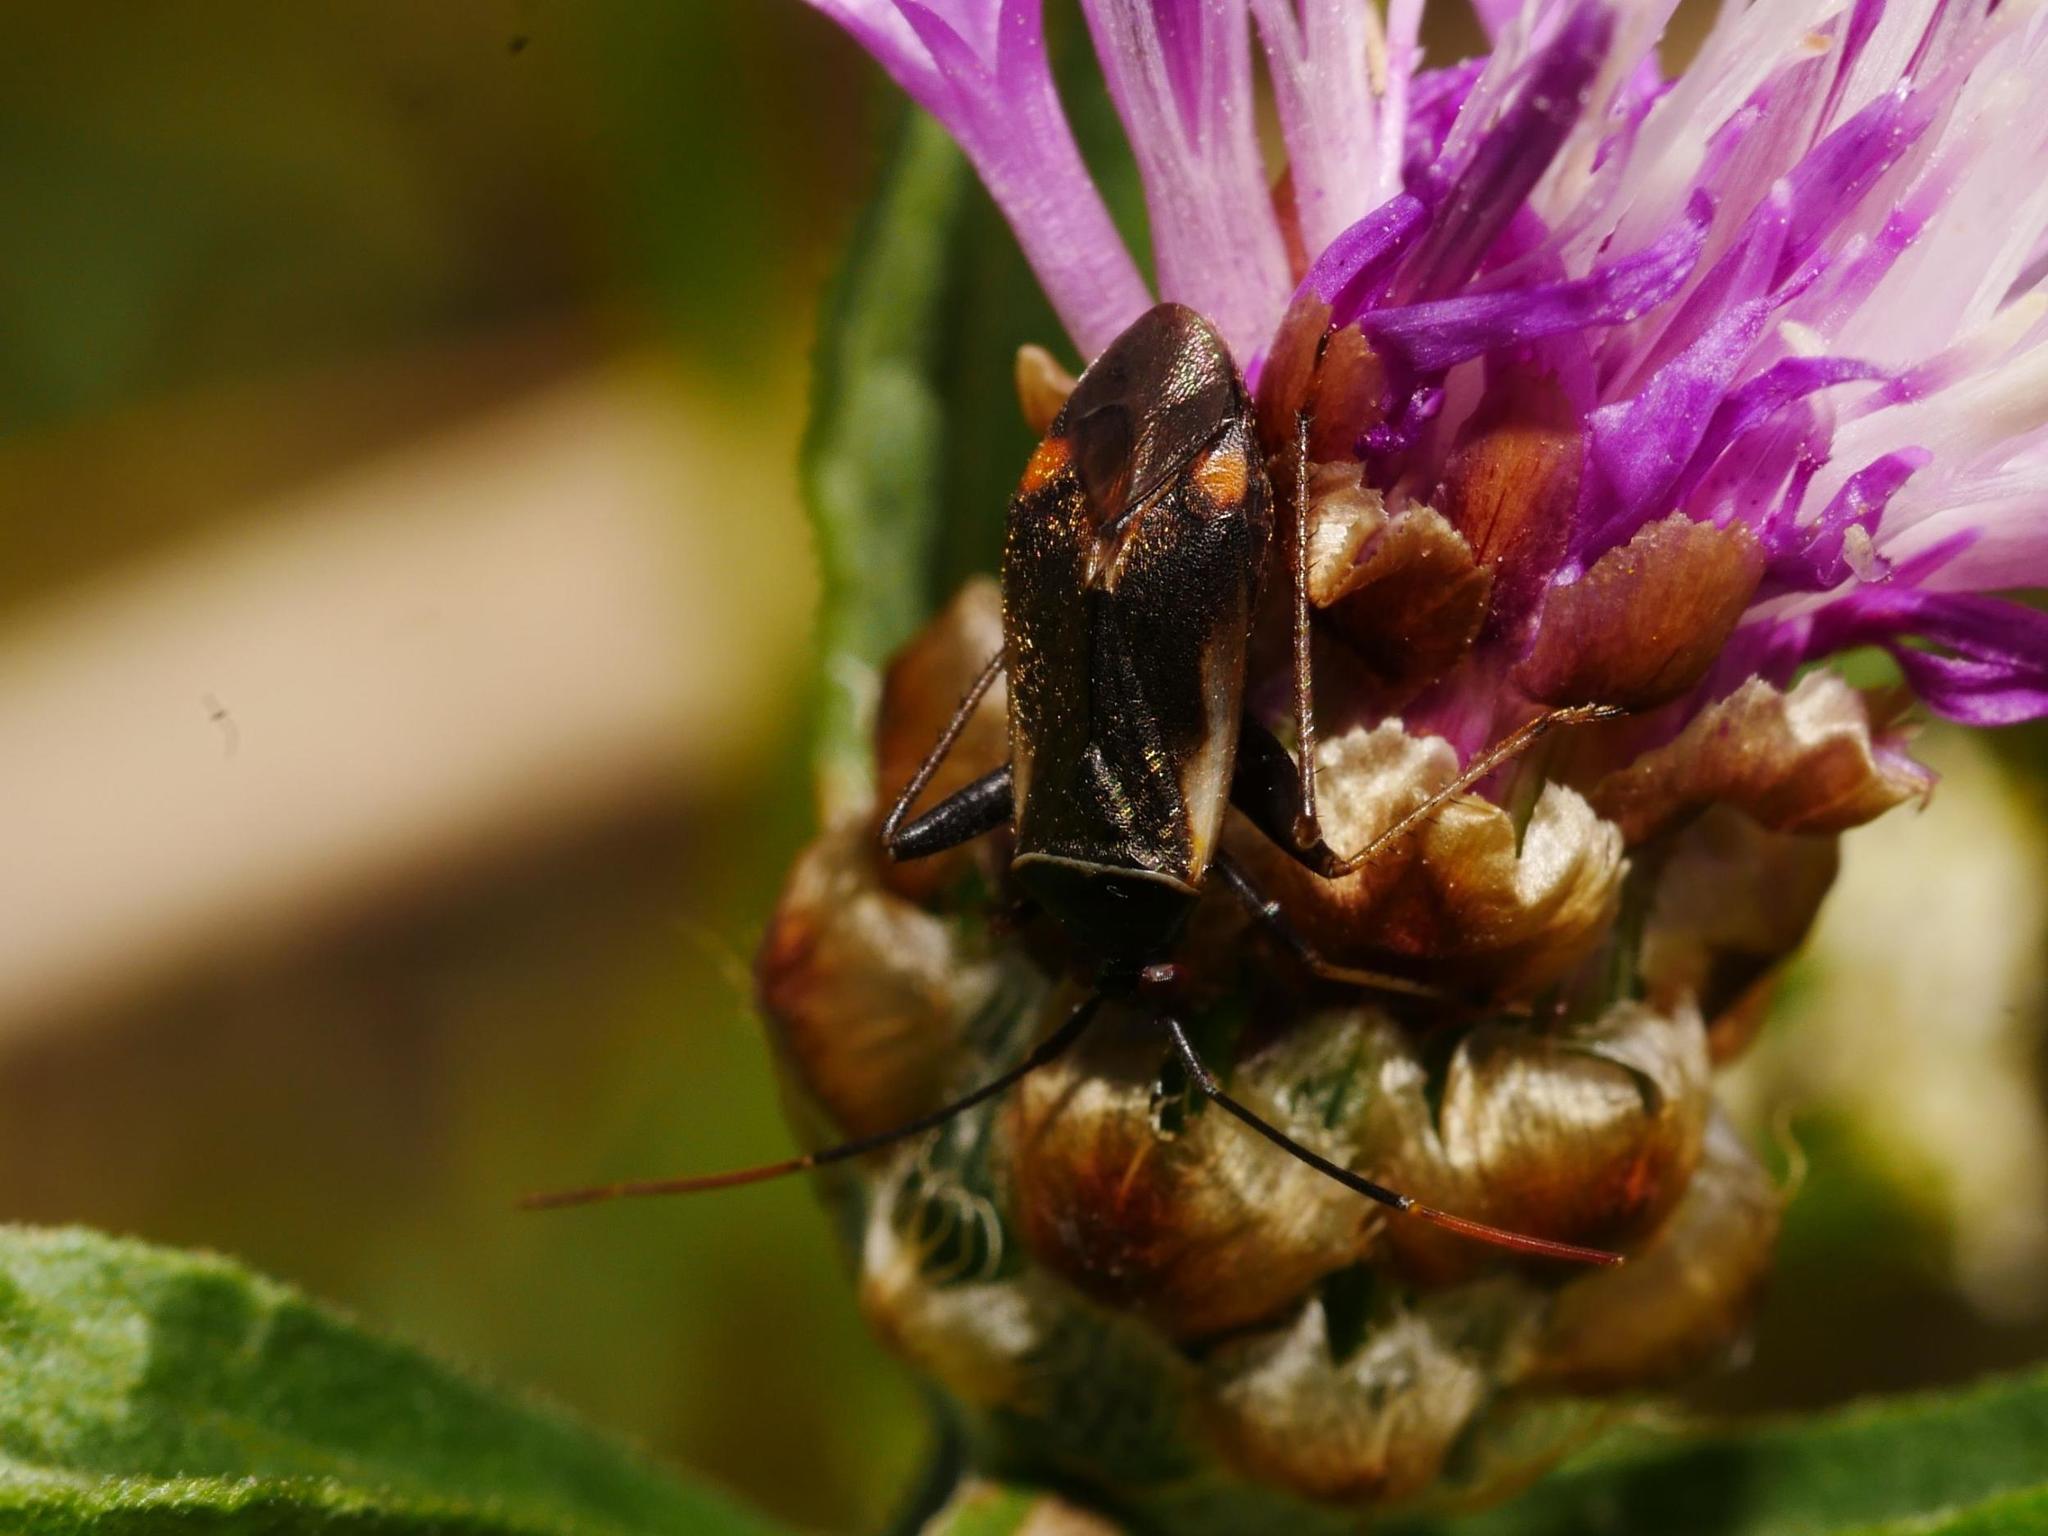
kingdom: Animalia
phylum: Arthropoda
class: Insecta
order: Hemiptera
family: Miridae
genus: Adelphocoris
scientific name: Adelphocoris seticornis
